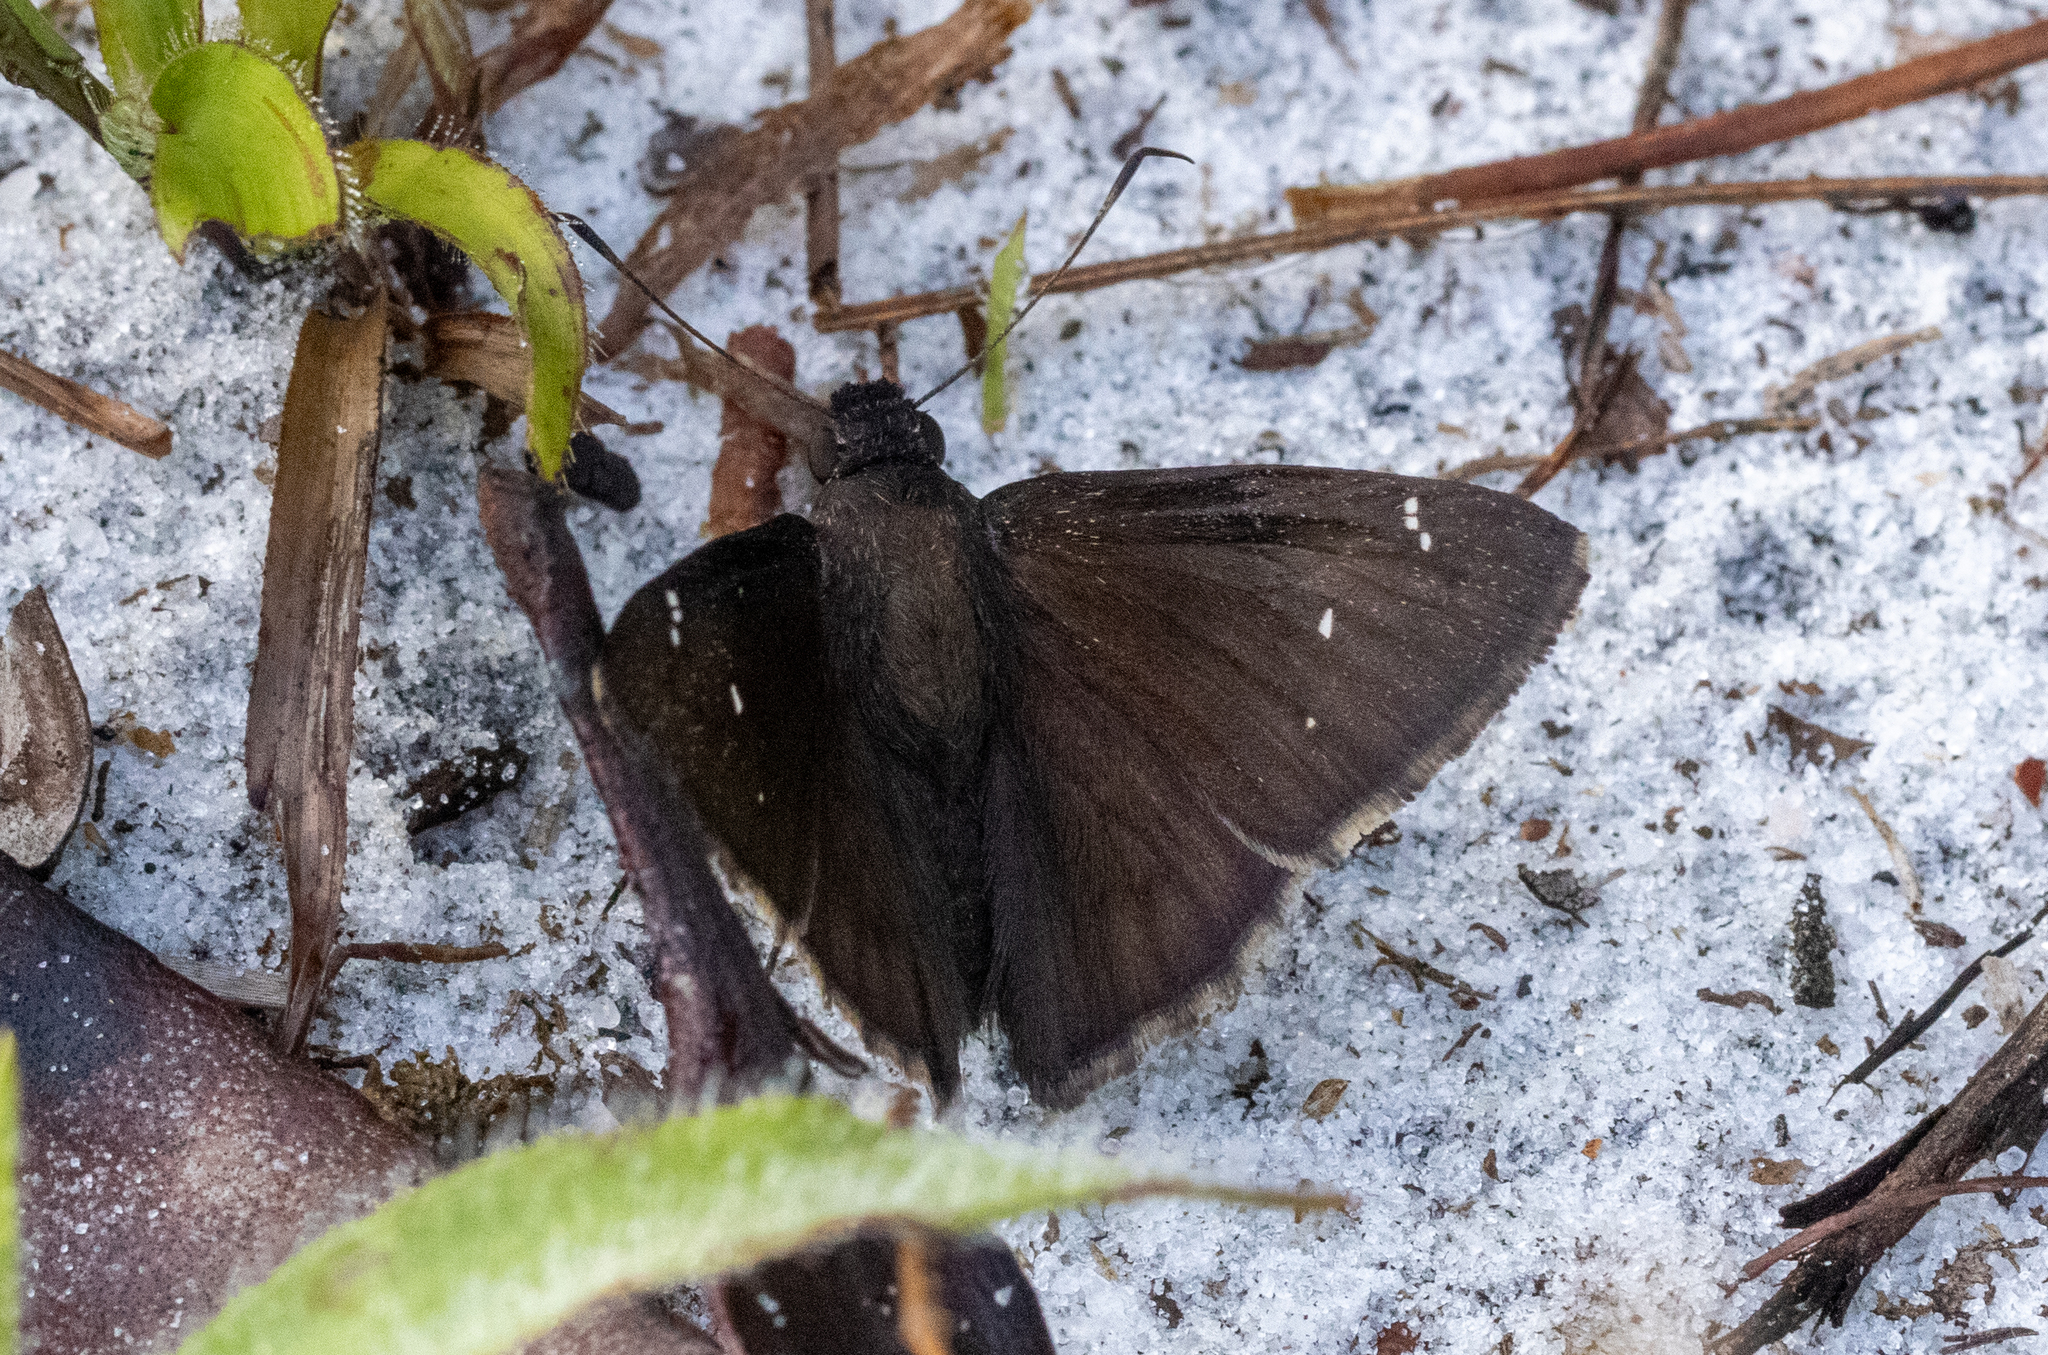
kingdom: Animalia
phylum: Arthropoda
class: Insecta
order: Lepidoptera
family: Hesperiidae
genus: Thorybes
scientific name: Thorybes pylades
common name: Northern cloudywing
